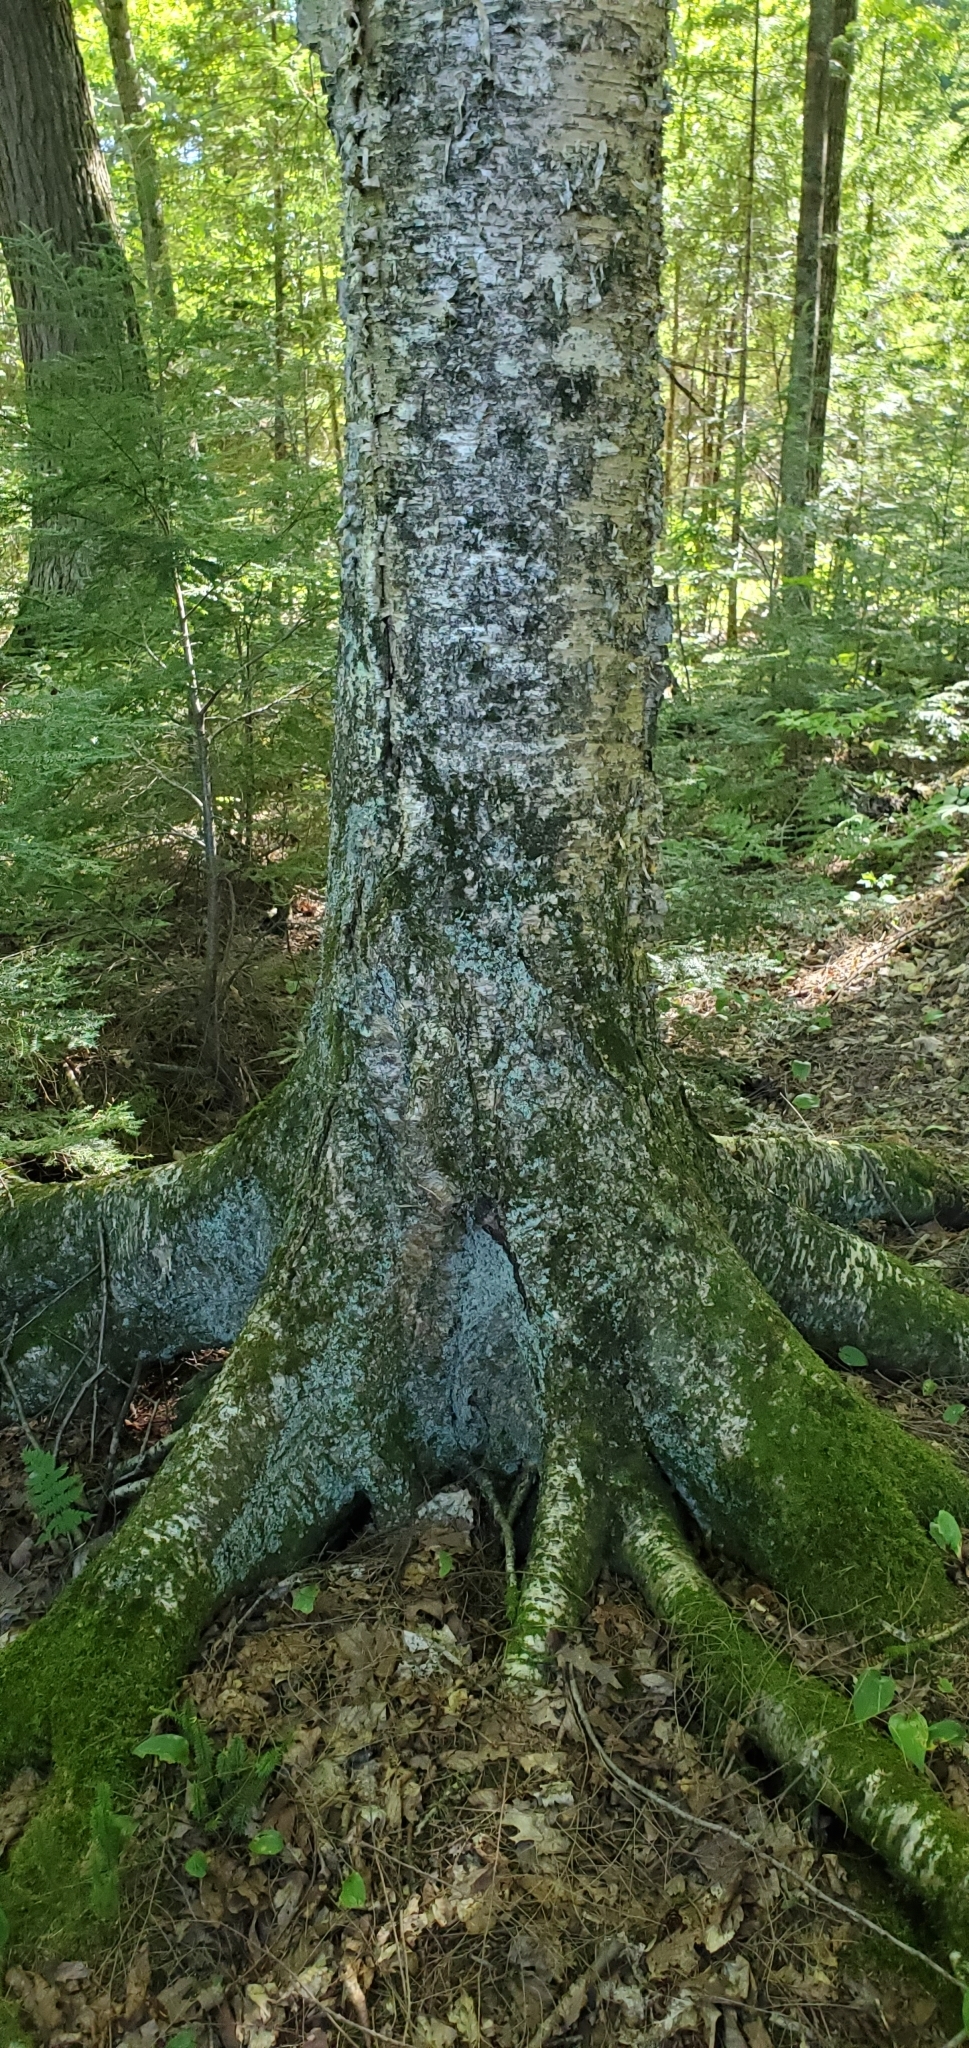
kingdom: Plantae
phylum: Tracheophyta
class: Magnoliopsida
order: Fagales
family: Betulaceae
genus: Betula
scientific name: Betula alleghaniensis
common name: Yellow birch
